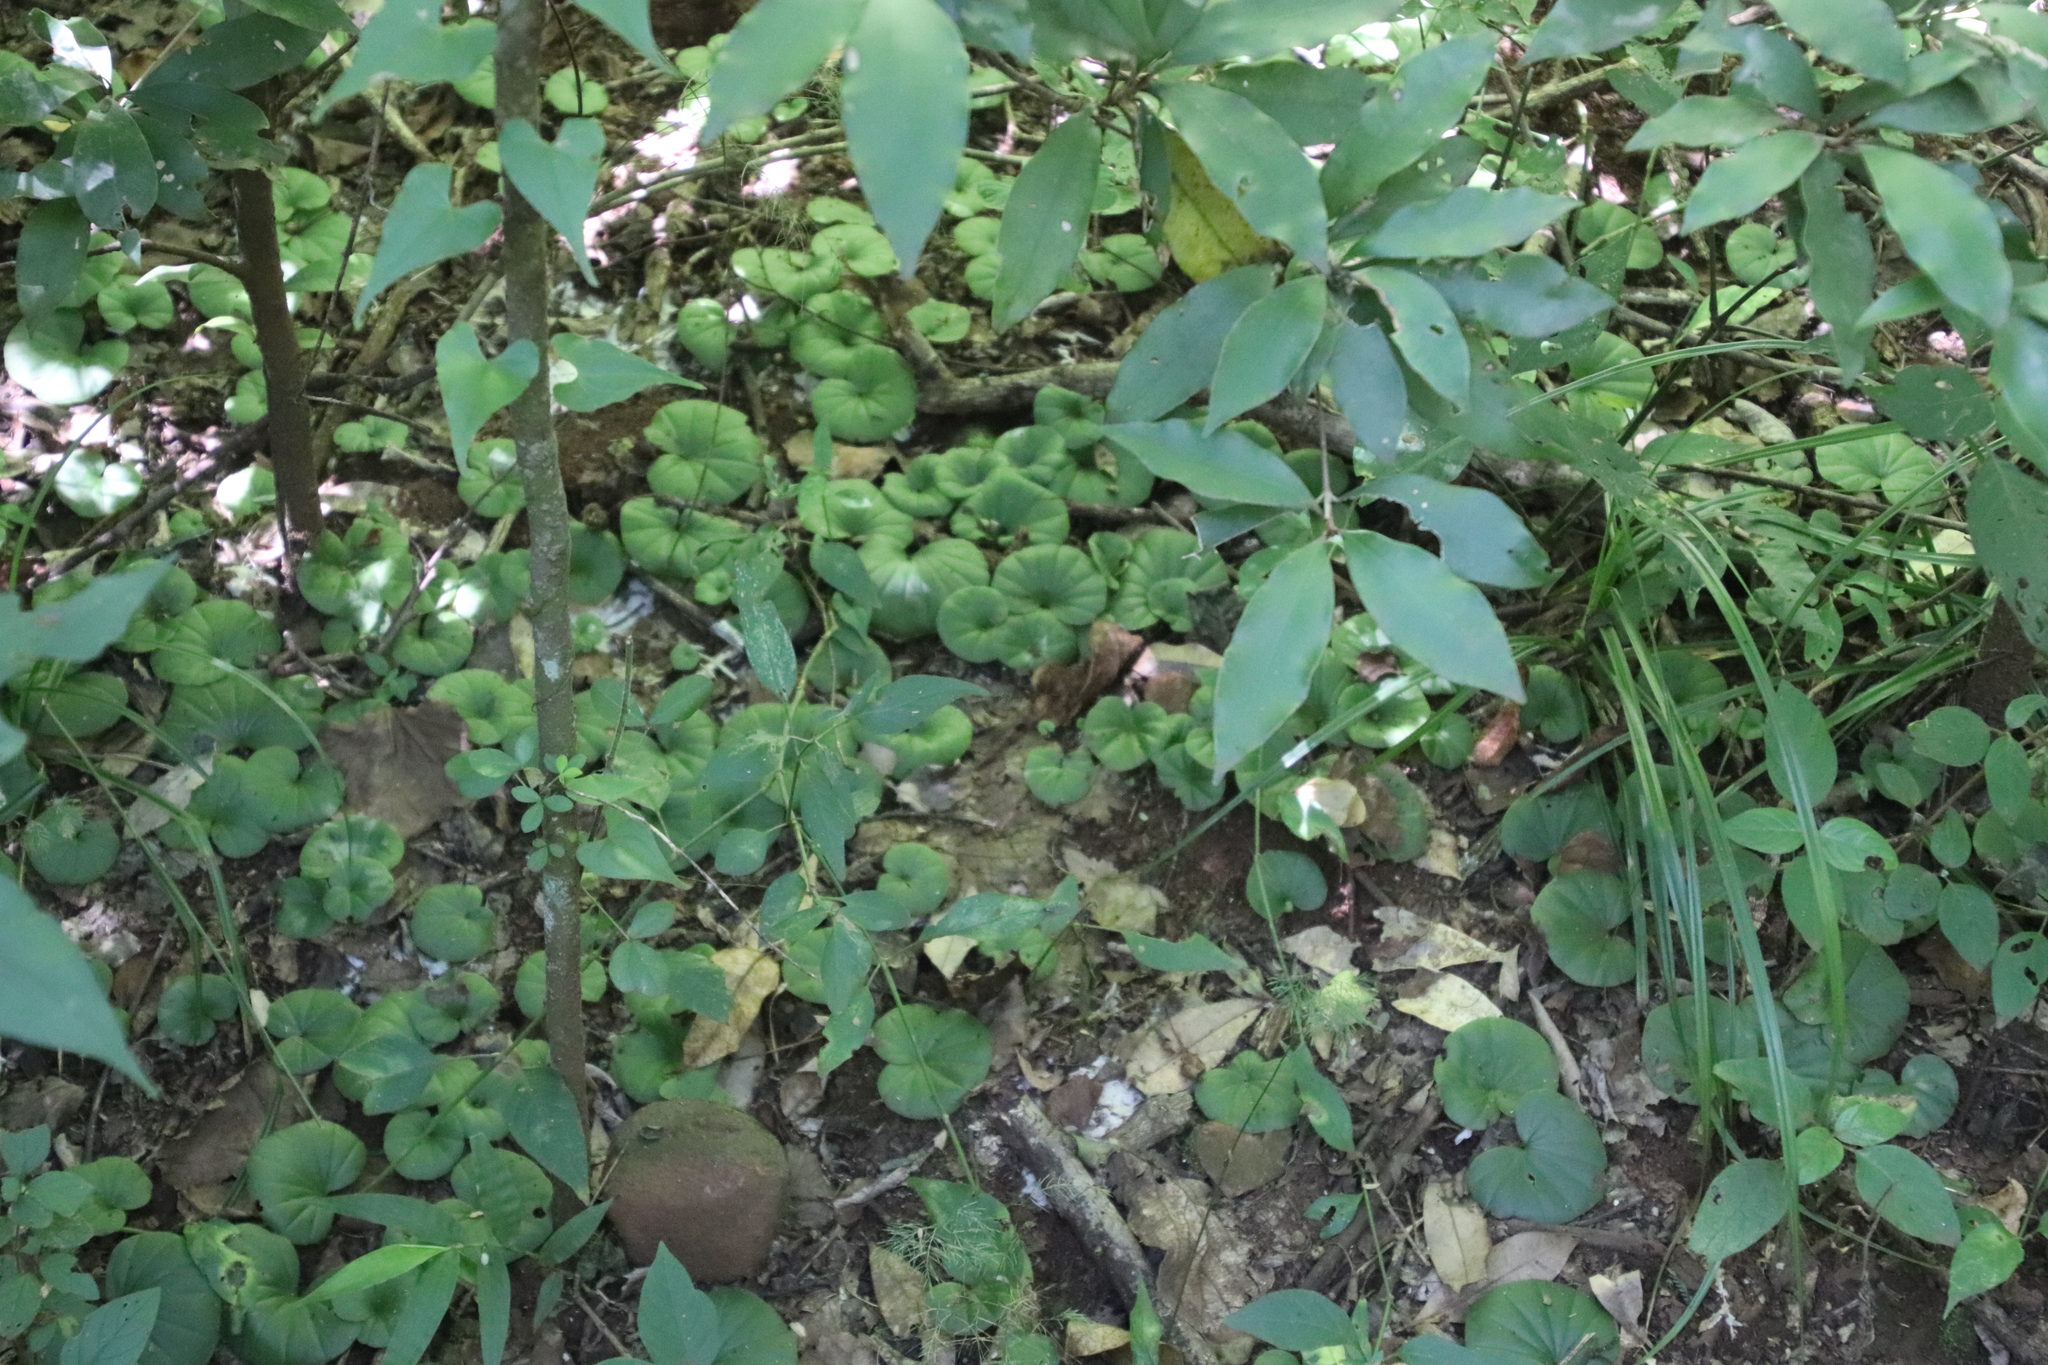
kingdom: Plantae
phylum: Tracheophyta
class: Liliopsida
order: Asparagales
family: Orchidaceae
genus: Nervilia
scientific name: Nervilia simplex
